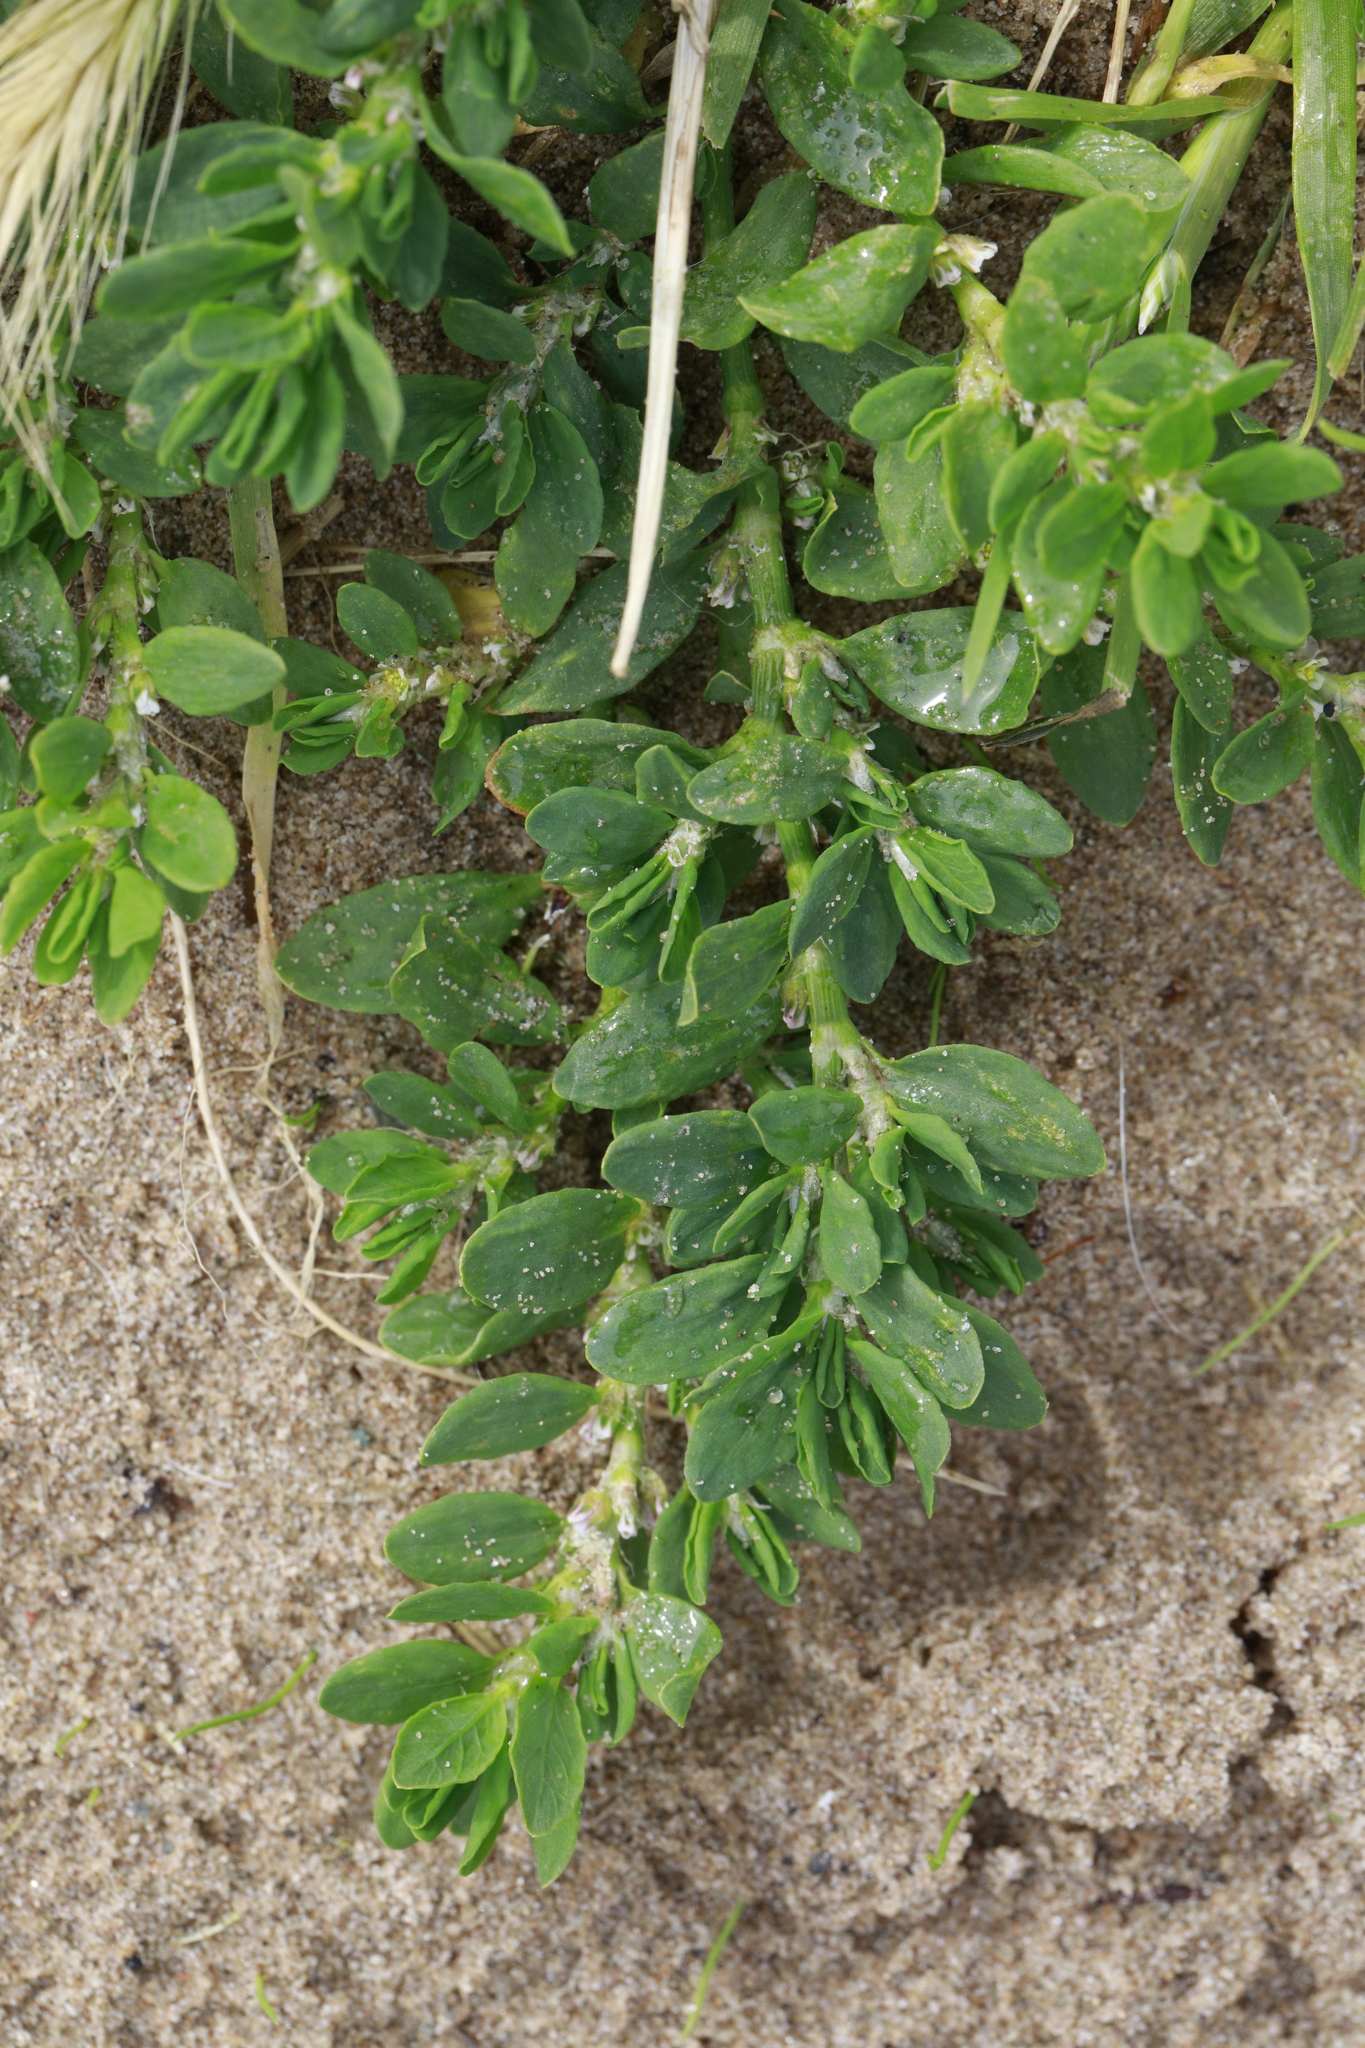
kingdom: Plantae
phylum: Tracheophyta
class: Magnoliopsida
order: Caryophyllales
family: Polygonaceae
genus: Polygonum
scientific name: Polygonum aviculare
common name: Prostrate knotweed
